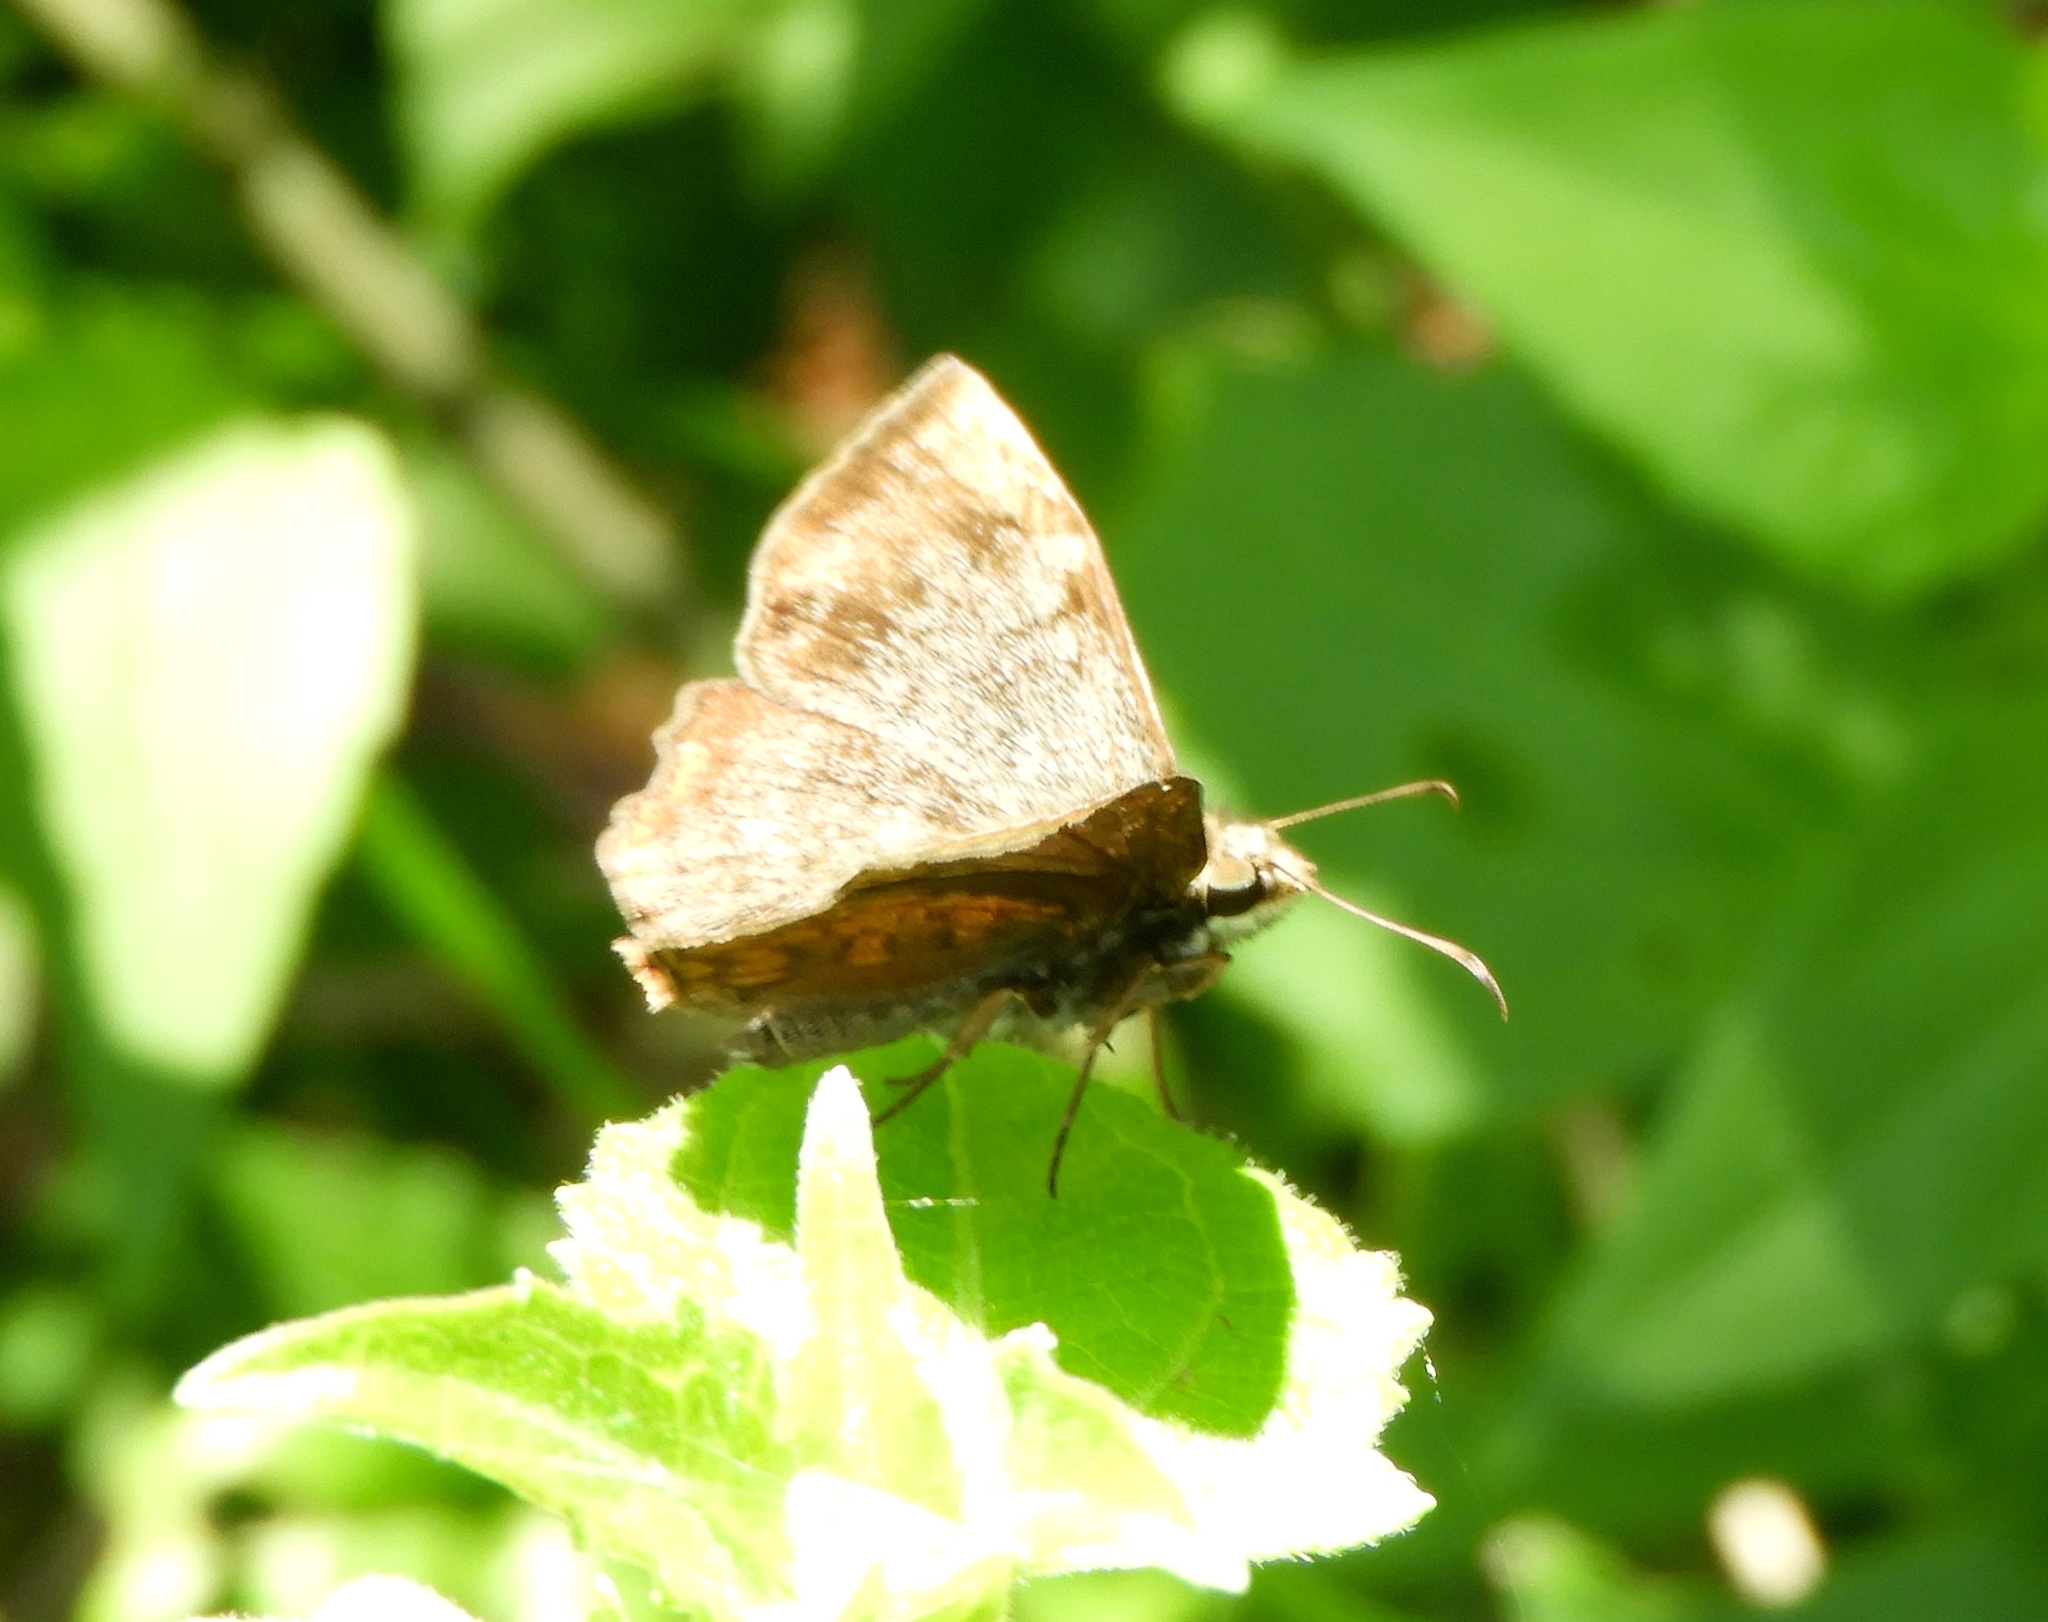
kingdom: Animalia
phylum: Arthropoda
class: Insecta
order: Lepidoptera
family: Hesperiidae
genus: Antigonus
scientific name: Antigonus erosus
